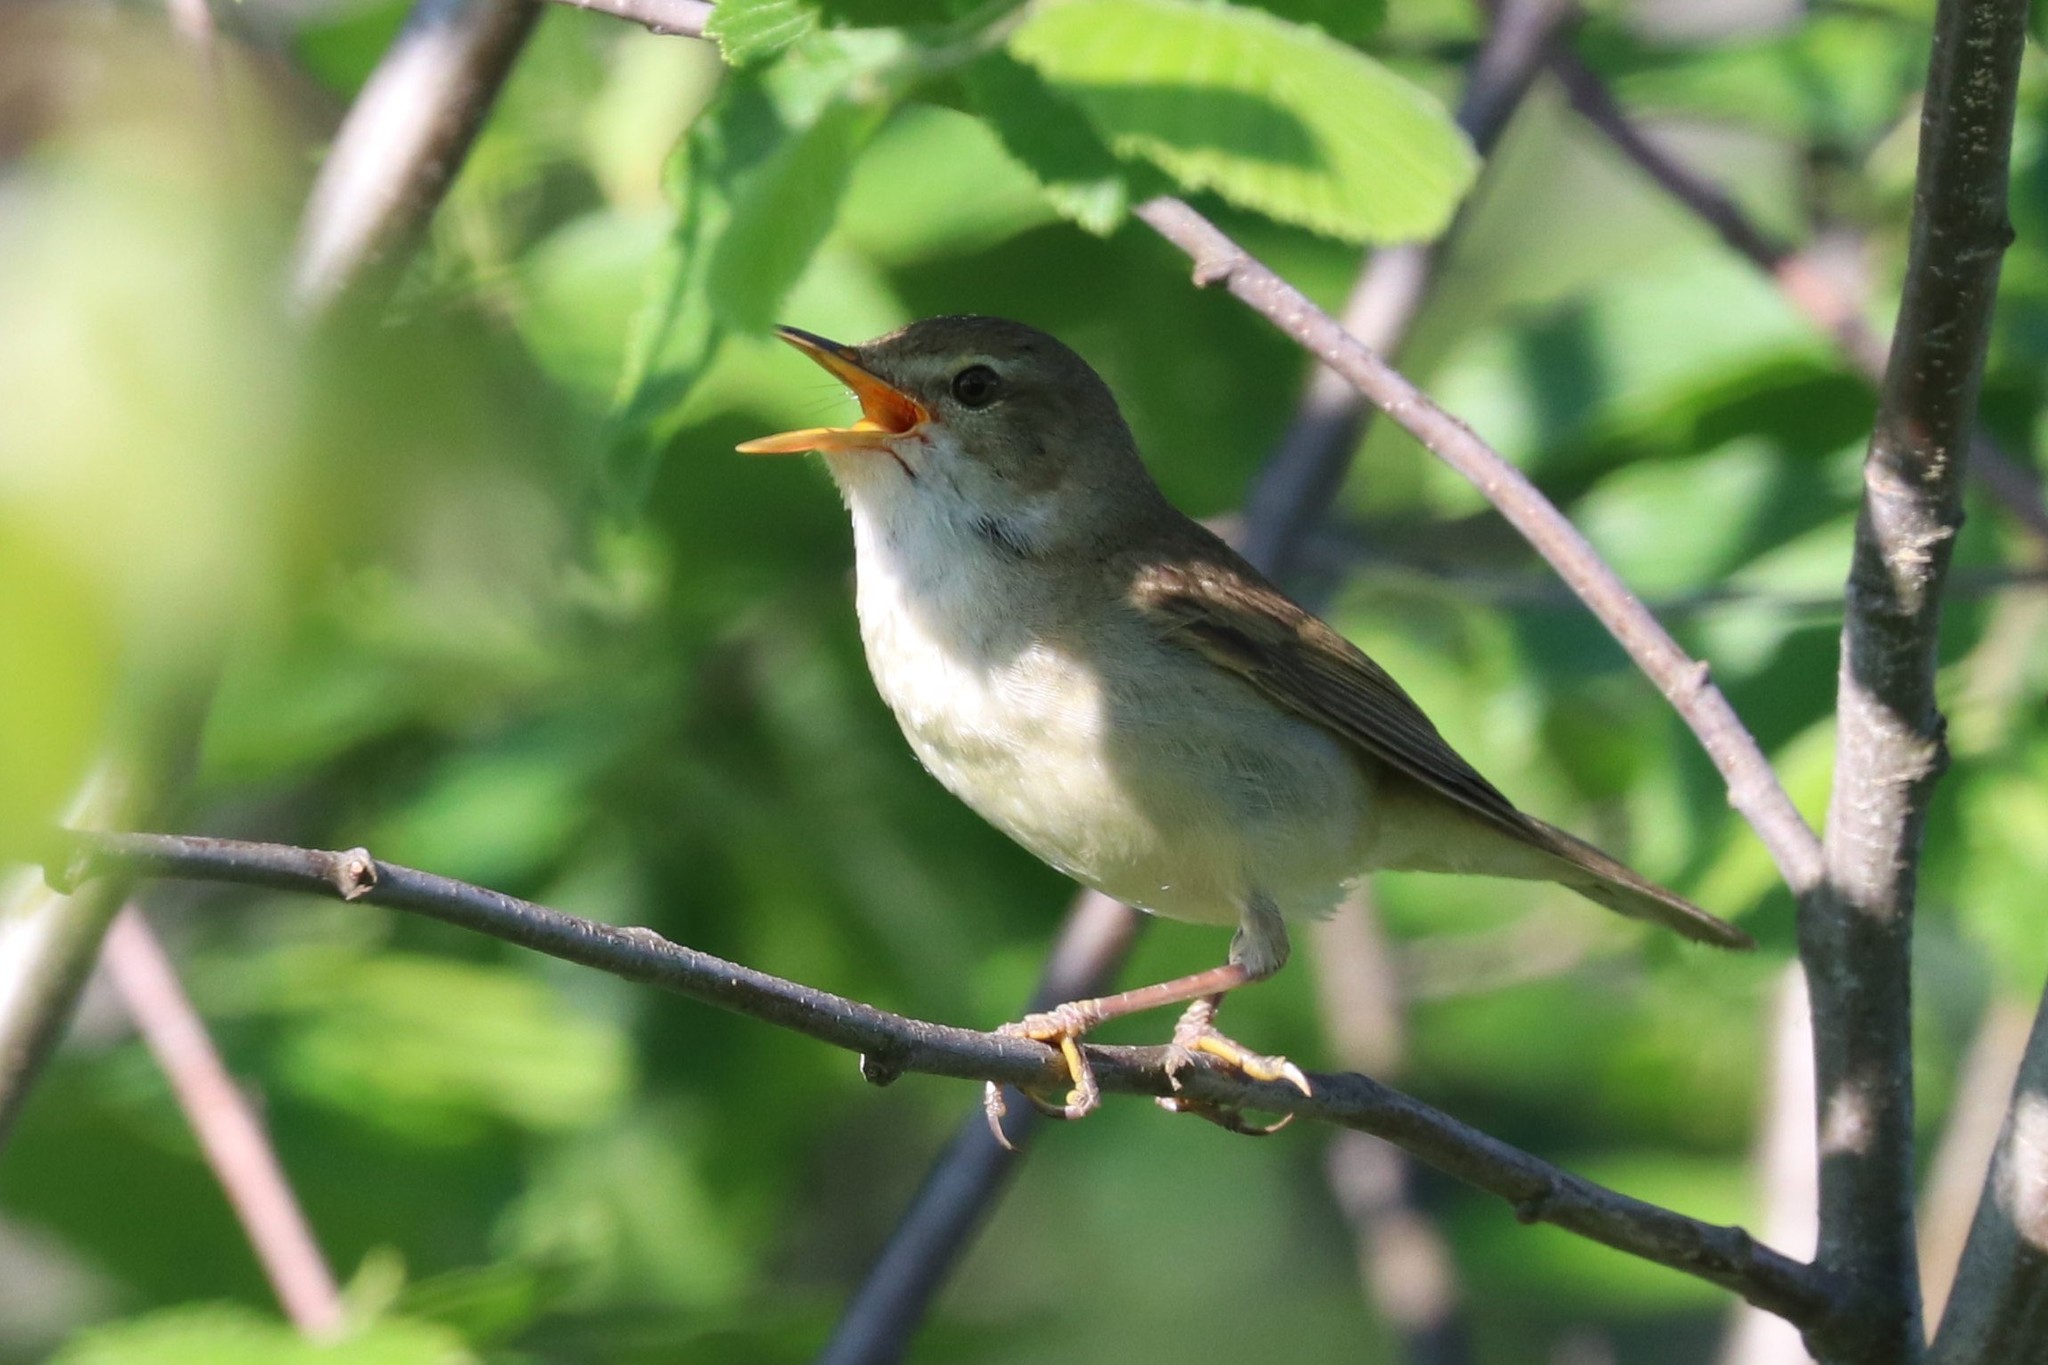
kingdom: Animalia
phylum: Chordata
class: Aves
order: Passeriformes
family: Acrocephalidae
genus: Acrocephalus
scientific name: Acrocephalus dumetorum
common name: Blyth's reed warbler
